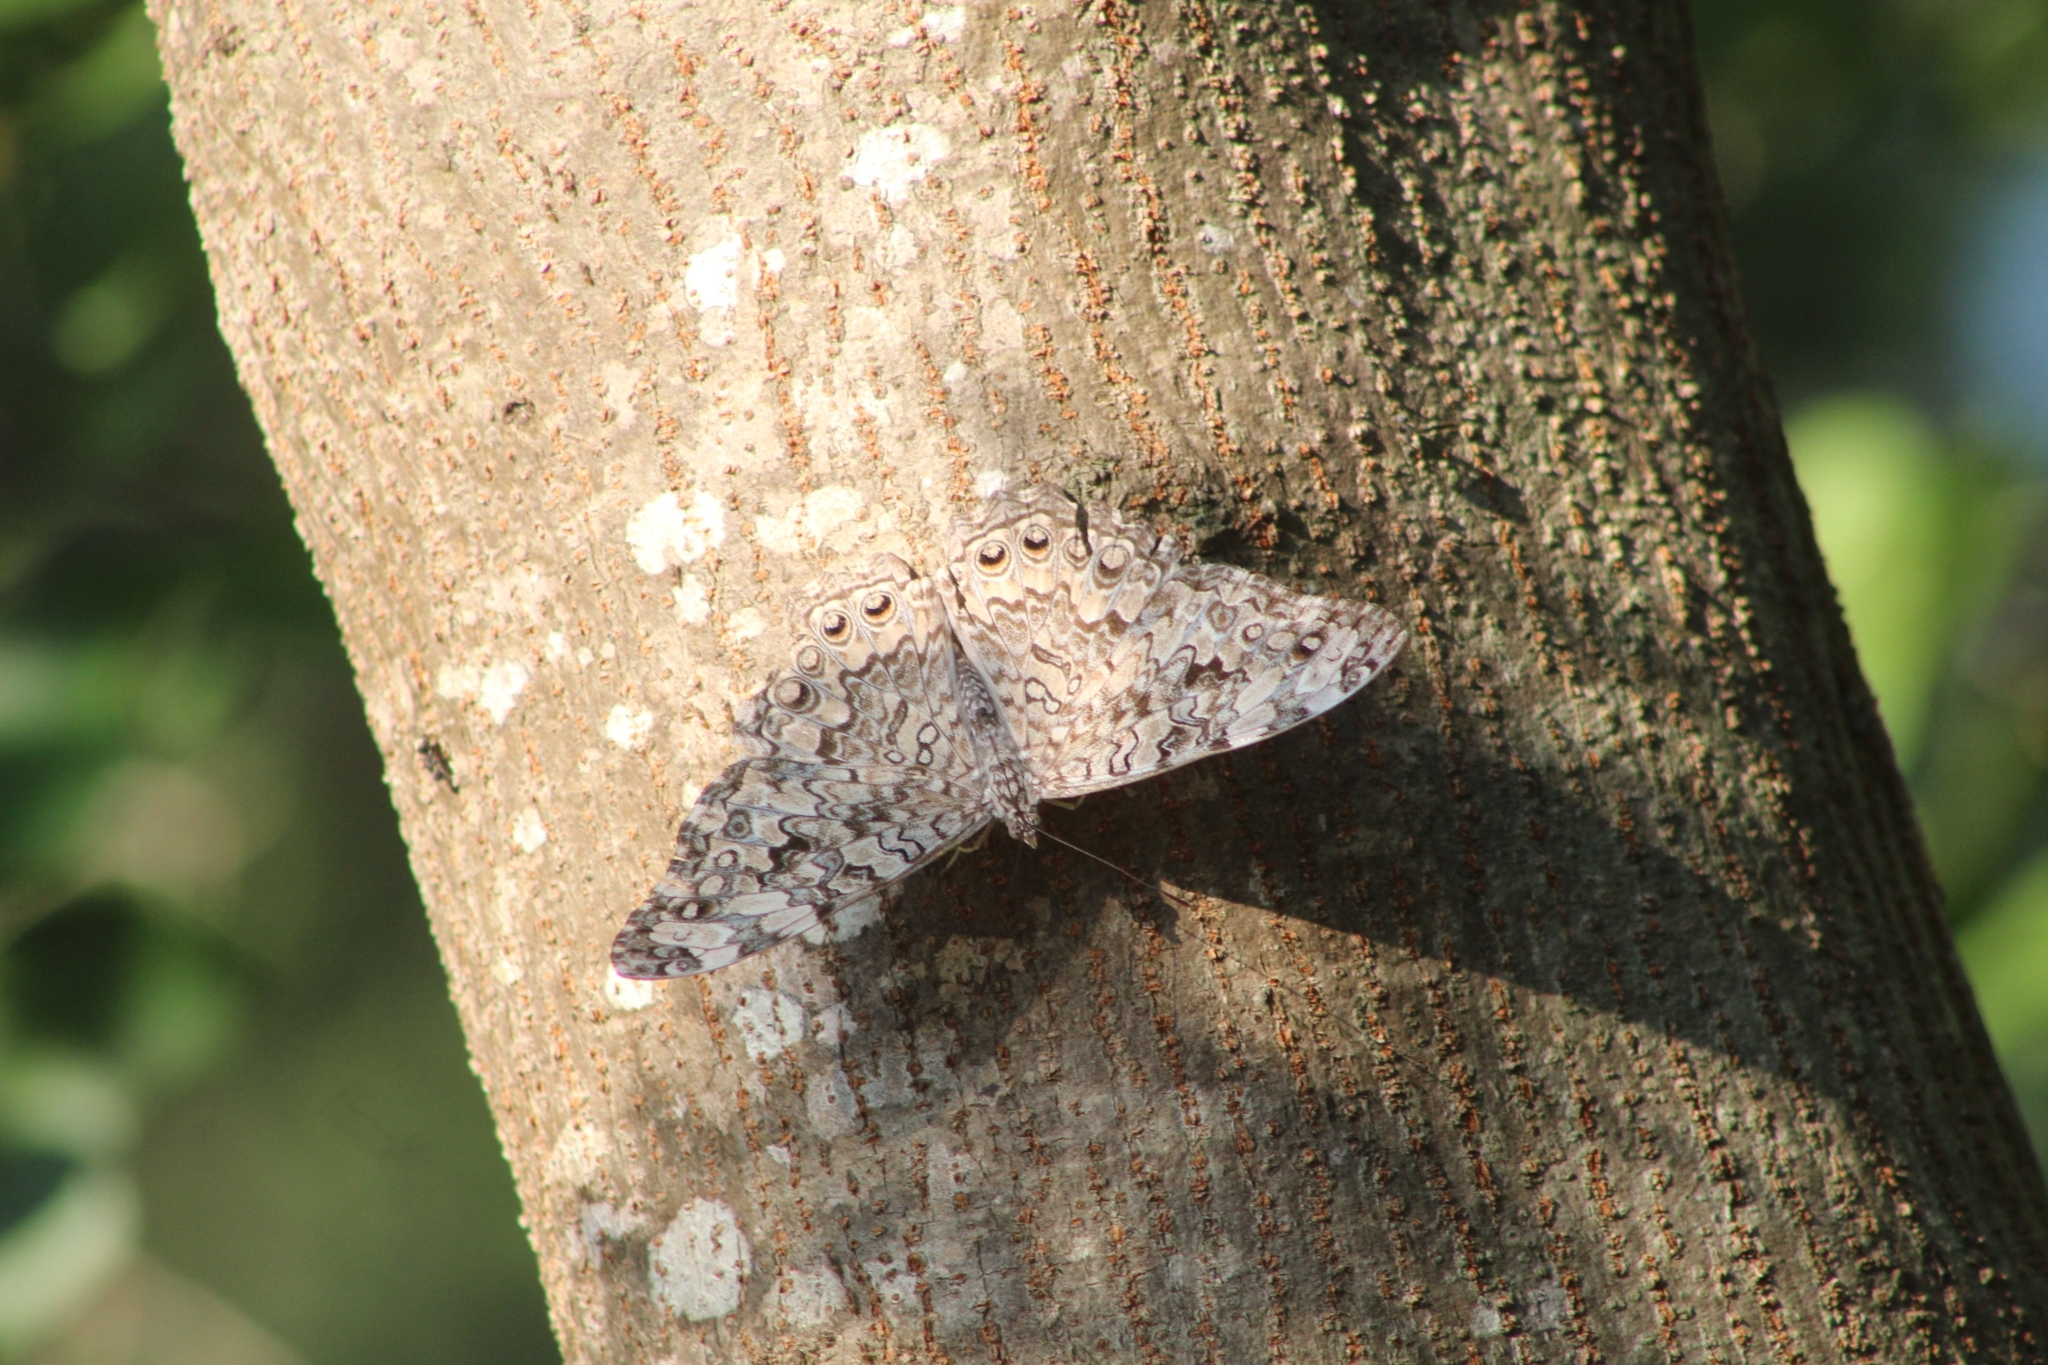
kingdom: Animalia
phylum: Arthropoda
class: Insecta
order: Lepidoptera
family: Nymphalidae
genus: Hamadryas
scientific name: Hamadryas februa
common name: Gray cracker
